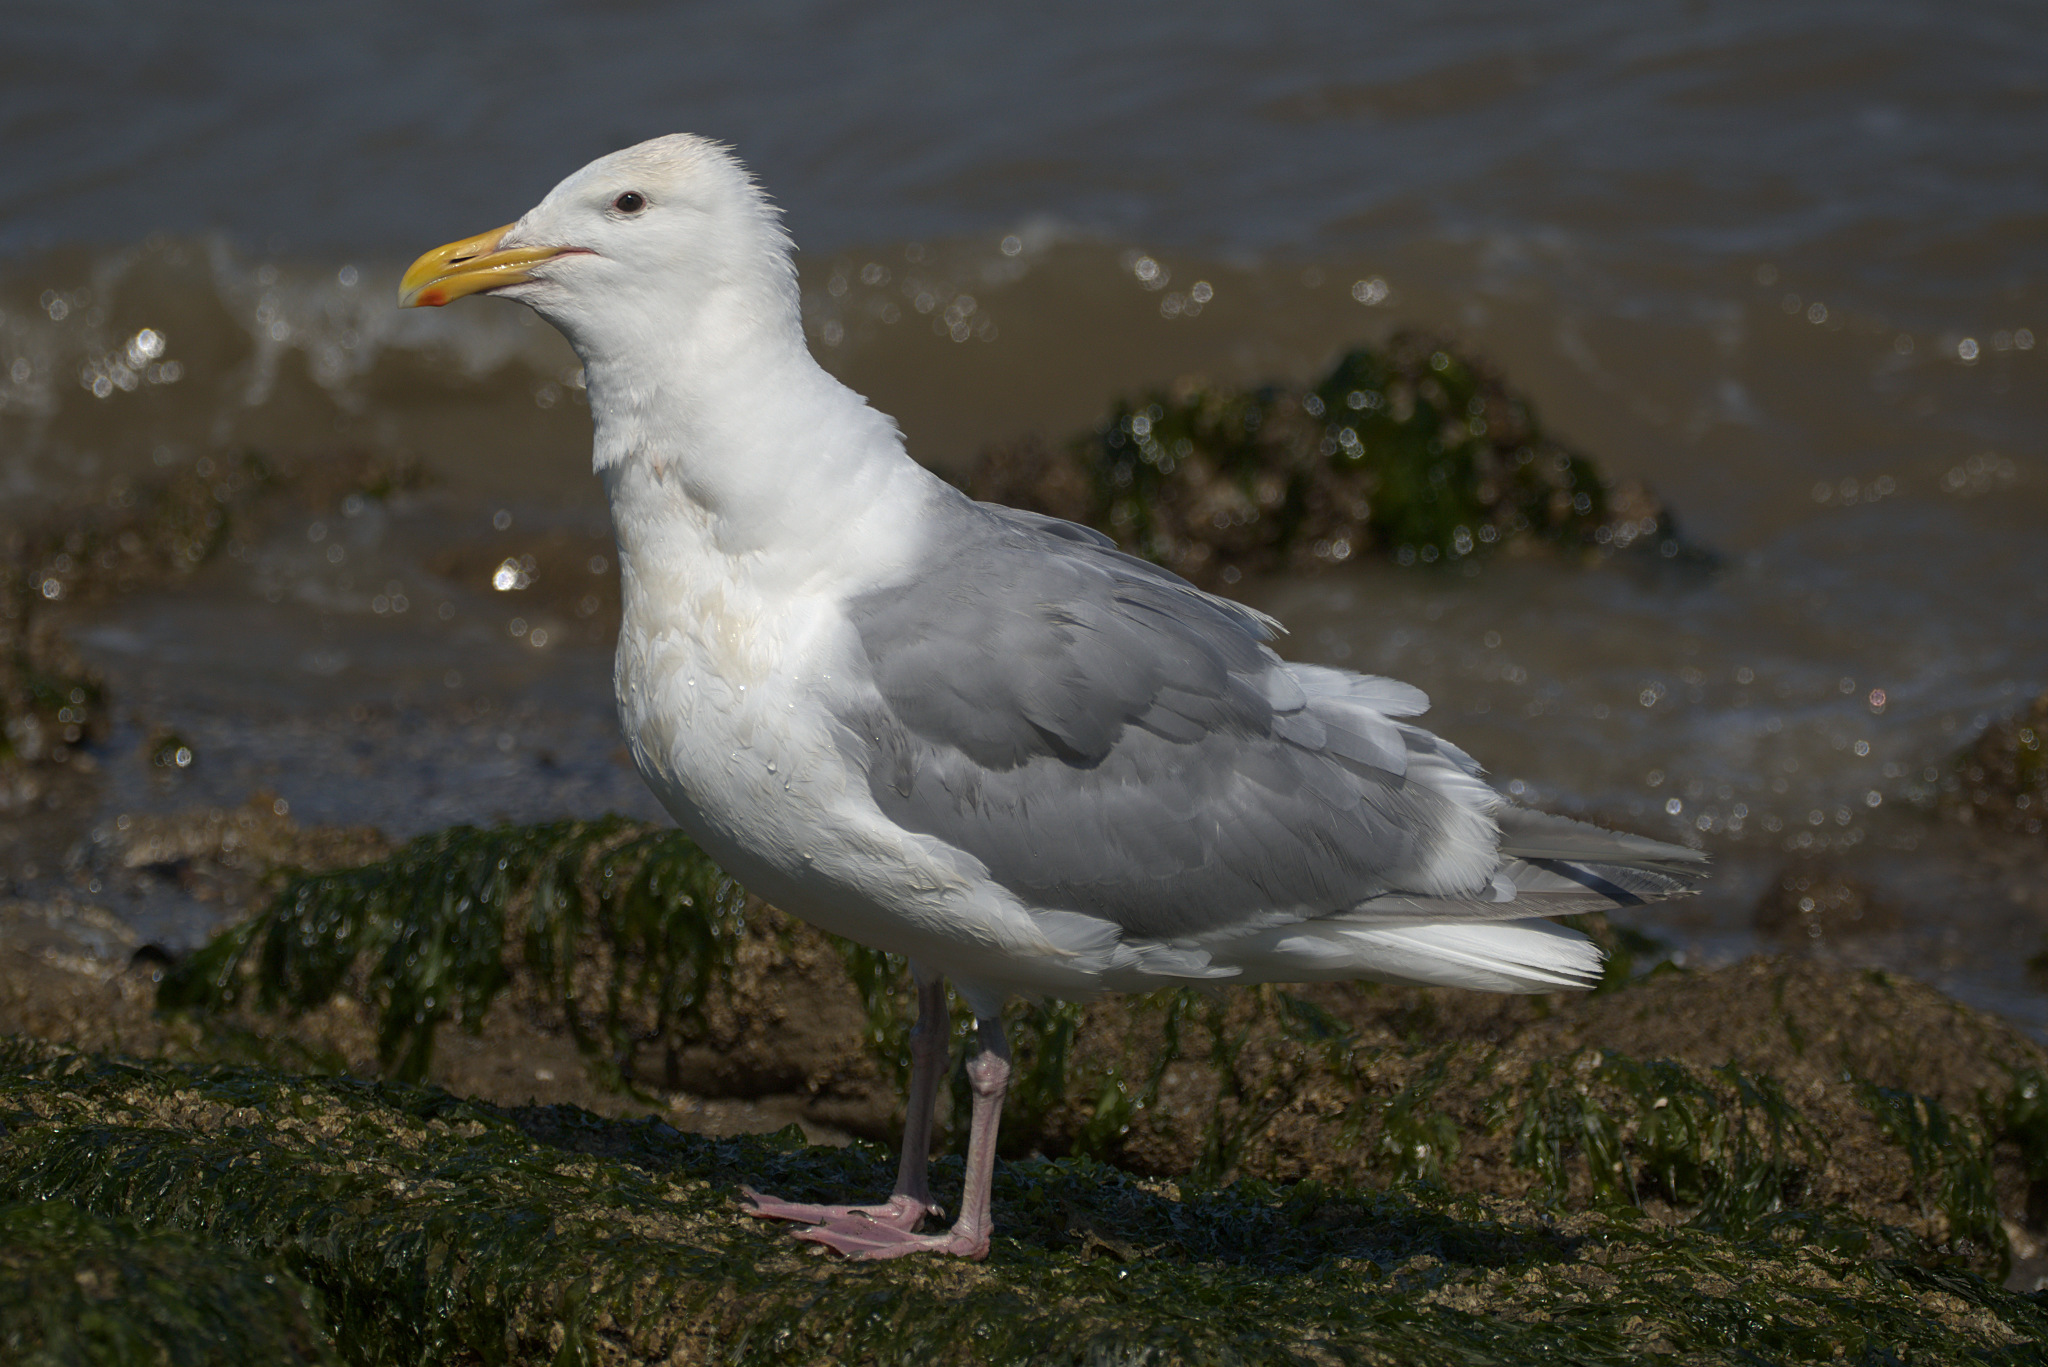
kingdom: Animalia
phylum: Chordata
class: Aves
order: Charadriiformes
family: Laridae
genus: Larus
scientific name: Larus glaucescens
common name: Glaucous-winged gull
